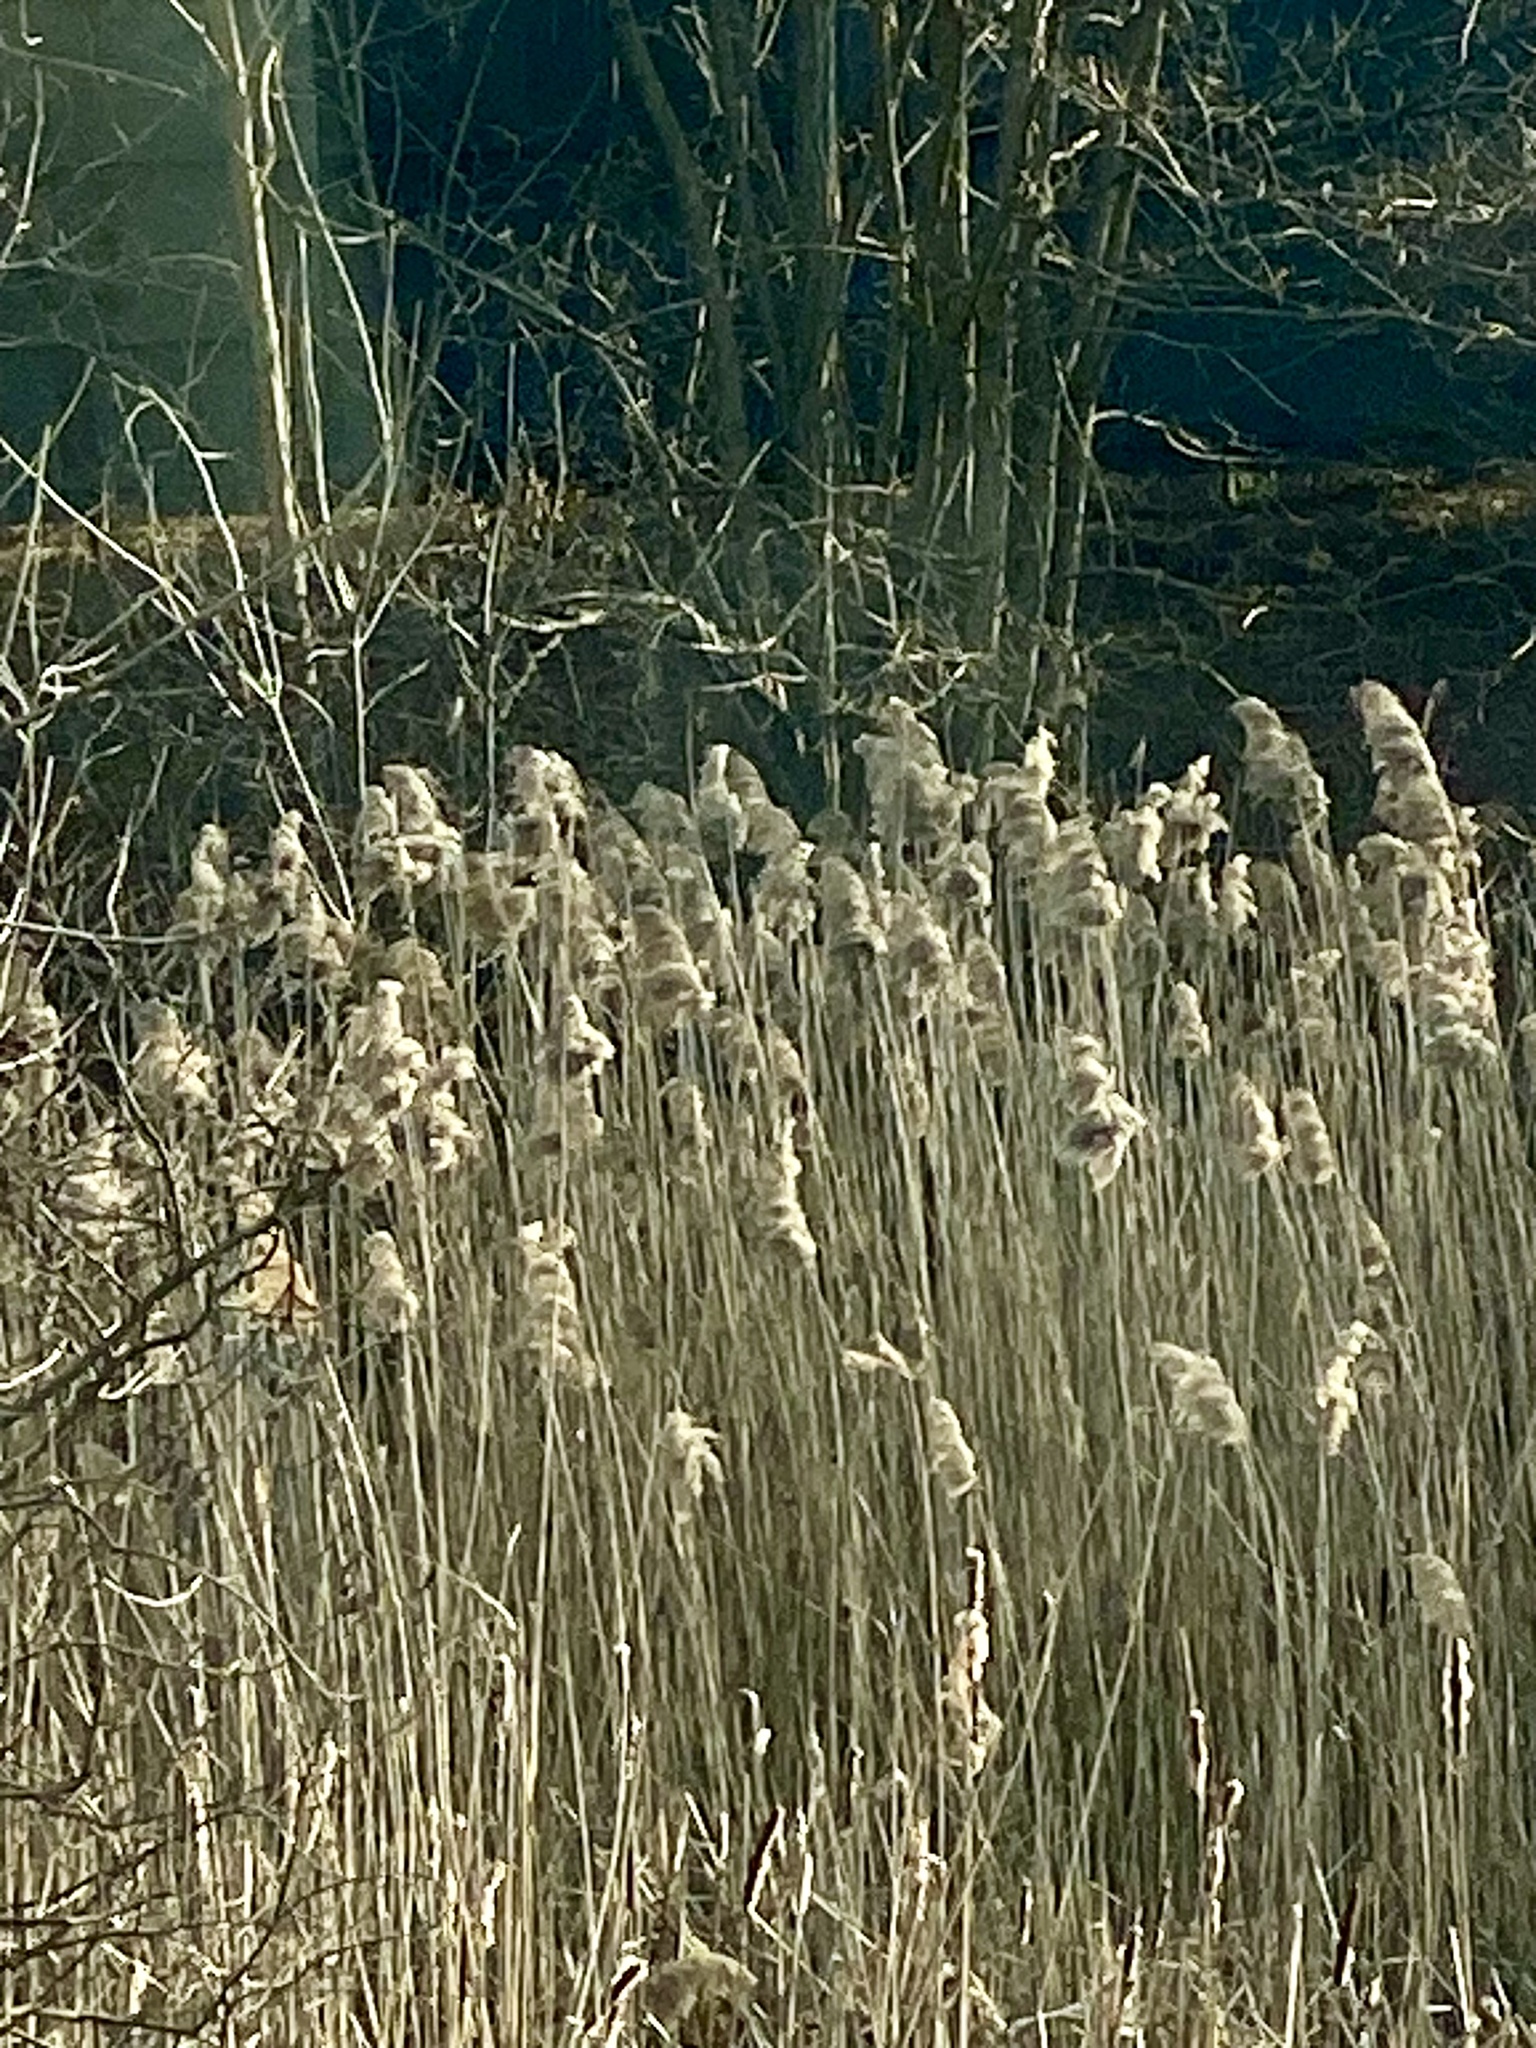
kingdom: Plantae
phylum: Tracheophyta
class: Liliopsida
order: Poales
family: Poaceae
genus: Phragmites
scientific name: Phragmites australis
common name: Common reed
